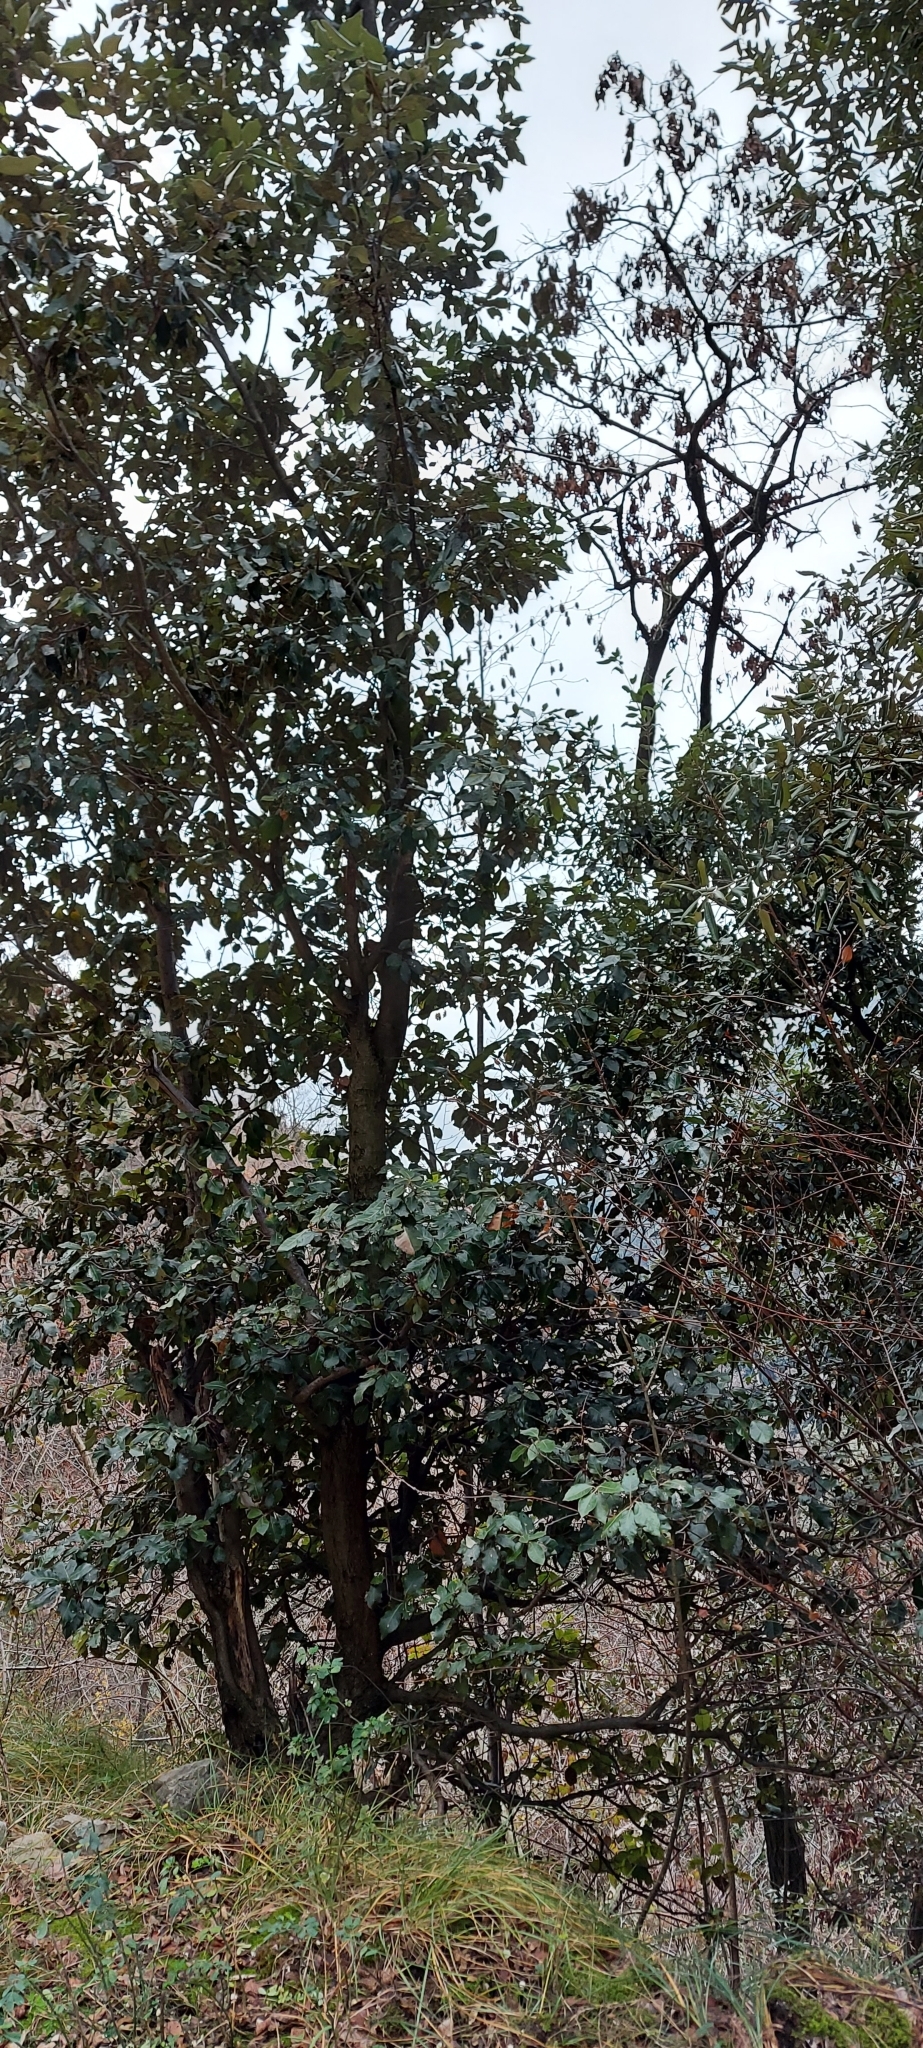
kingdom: Plantae
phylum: Tracheophyta
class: Magnoliopsida
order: Fagales
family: Fagaceae
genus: Quercus
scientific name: Quercus ilex
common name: Evergreen oak
